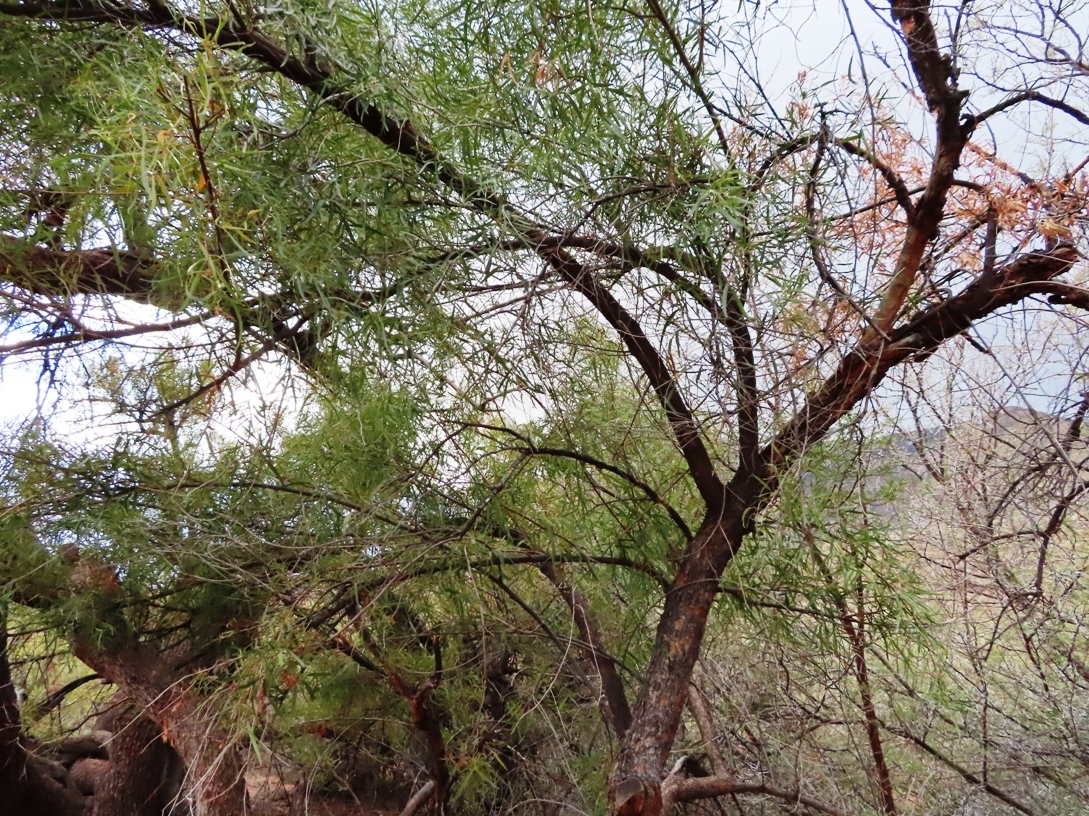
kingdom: Plantae
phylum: Tracheophyta
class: Magnoliopsida
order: Sapindales
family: Anacardiaceae
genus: Searsia
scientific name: Searsia lancea
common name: Cashew
